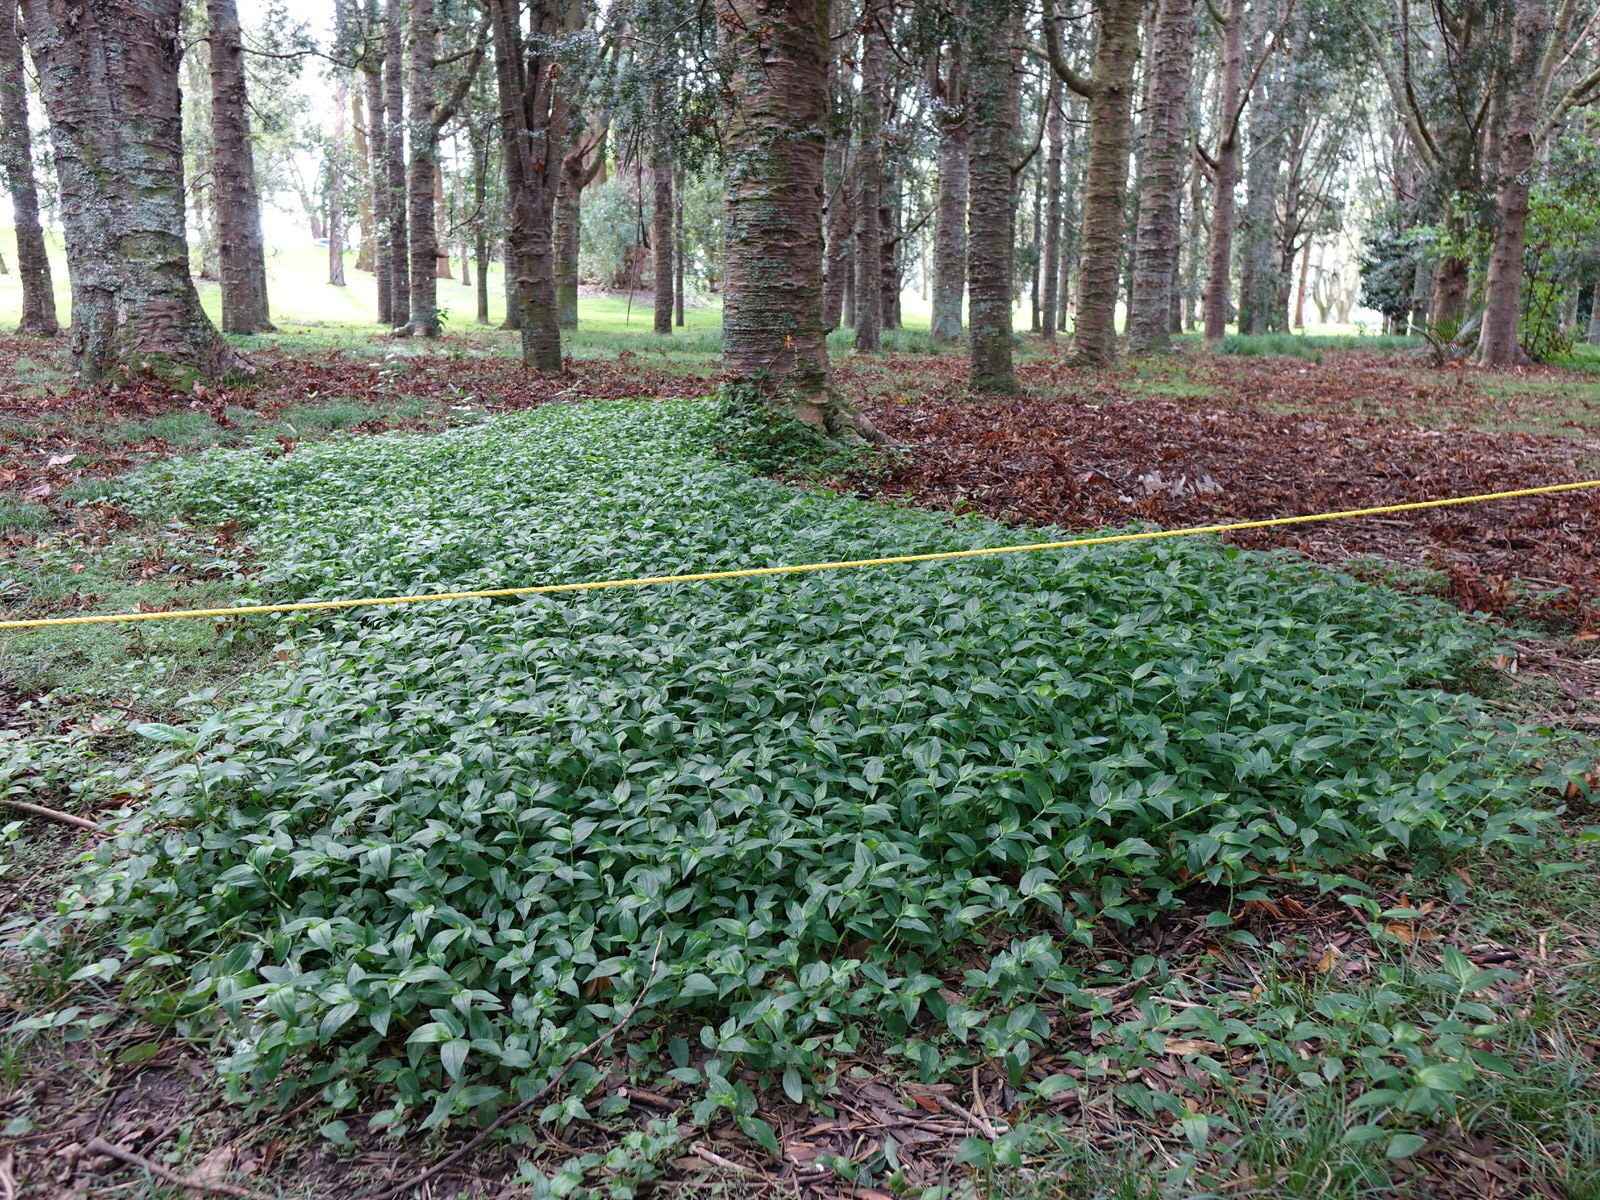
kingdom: Plantae
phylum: Tracheophyta
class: Liliopsida
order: Commelinales
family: Commelinaceae
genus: Tradescantia
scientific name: Tradescantia fluminensis
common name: Wandering-jew
